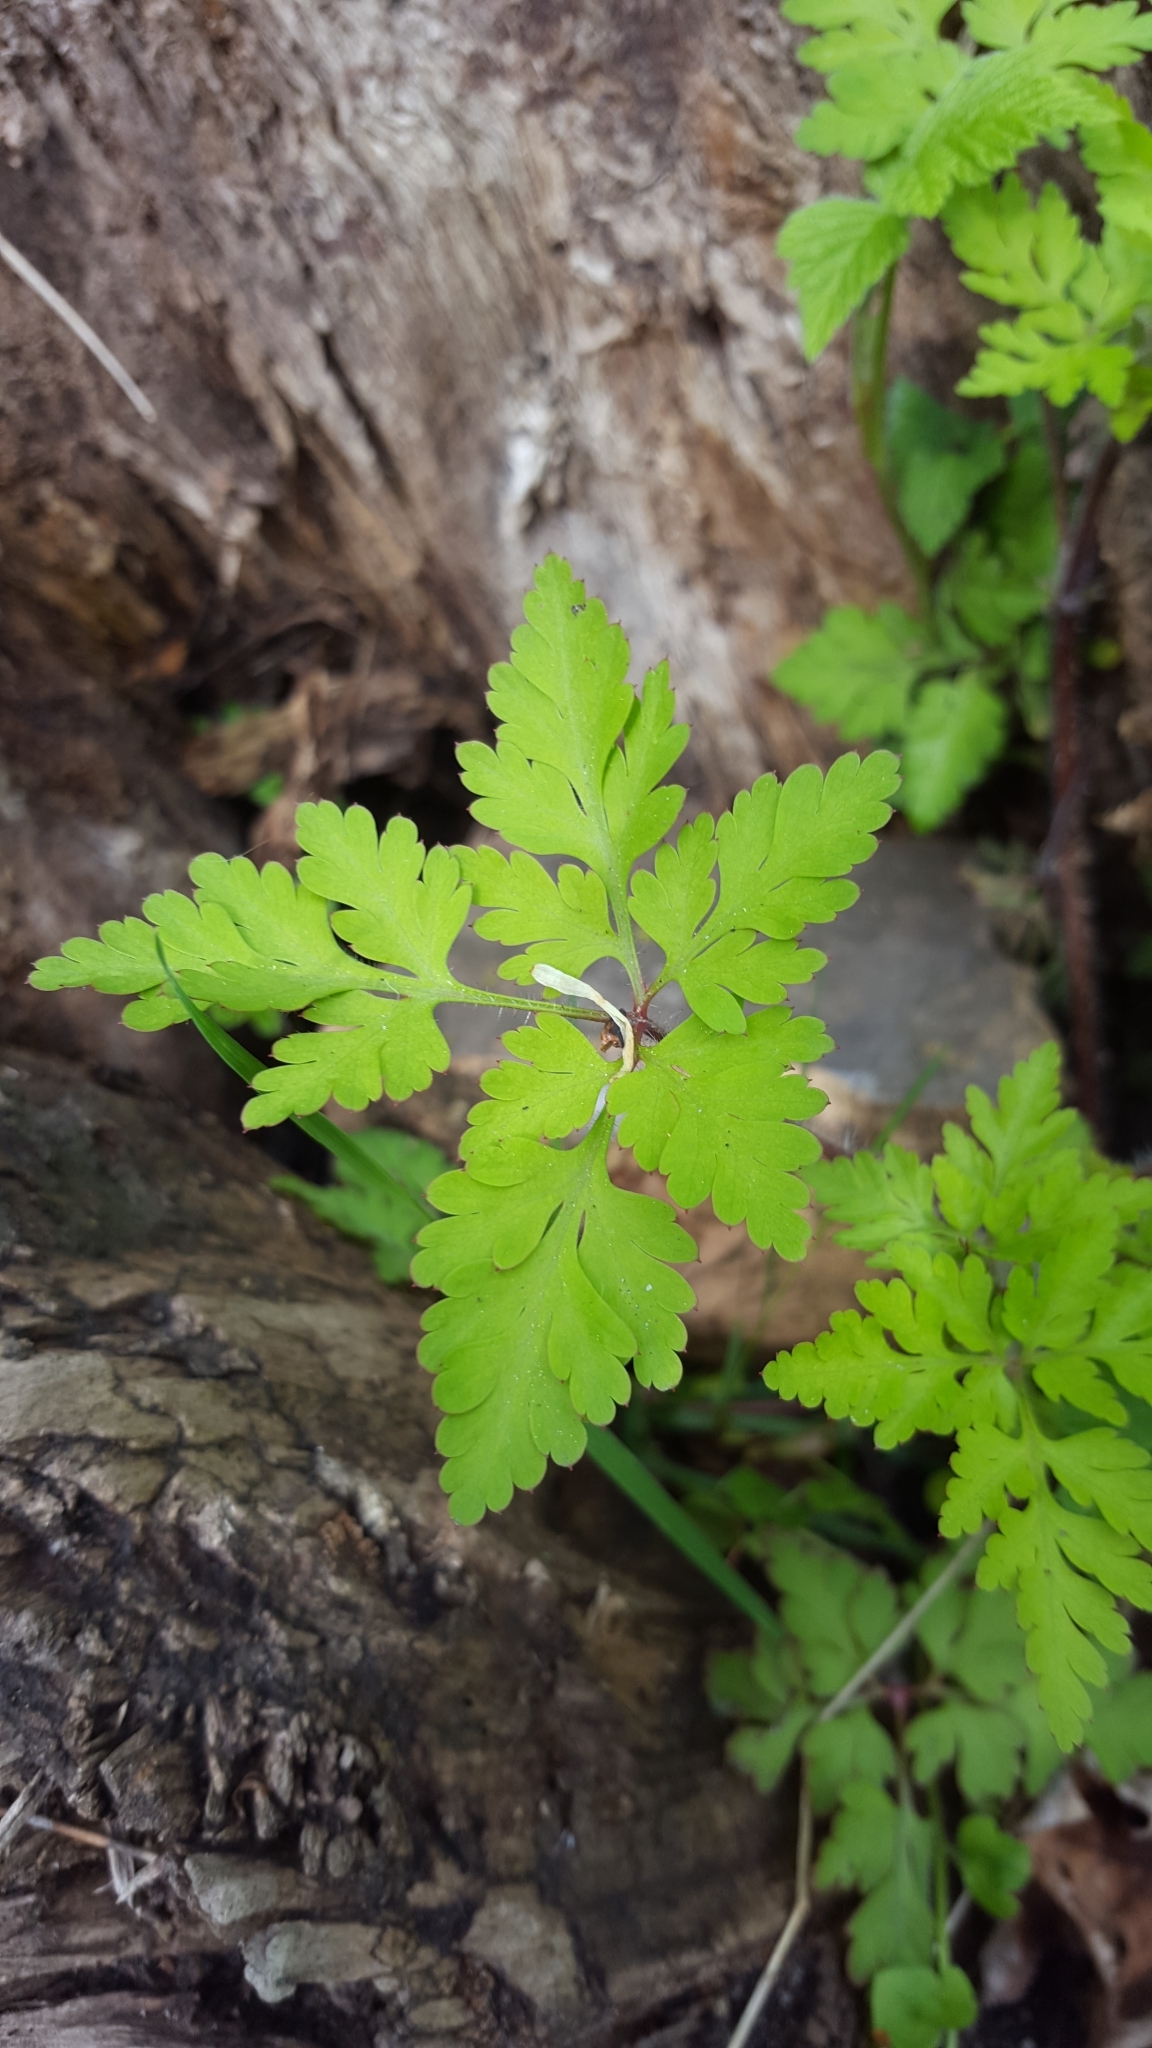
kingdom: Plantae
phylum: Tracheophyta
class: Magnoliopsida
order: Geraniales
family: Geraniaceae
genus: Geranium
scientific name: Geranium robertianum
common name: Herb-robert
